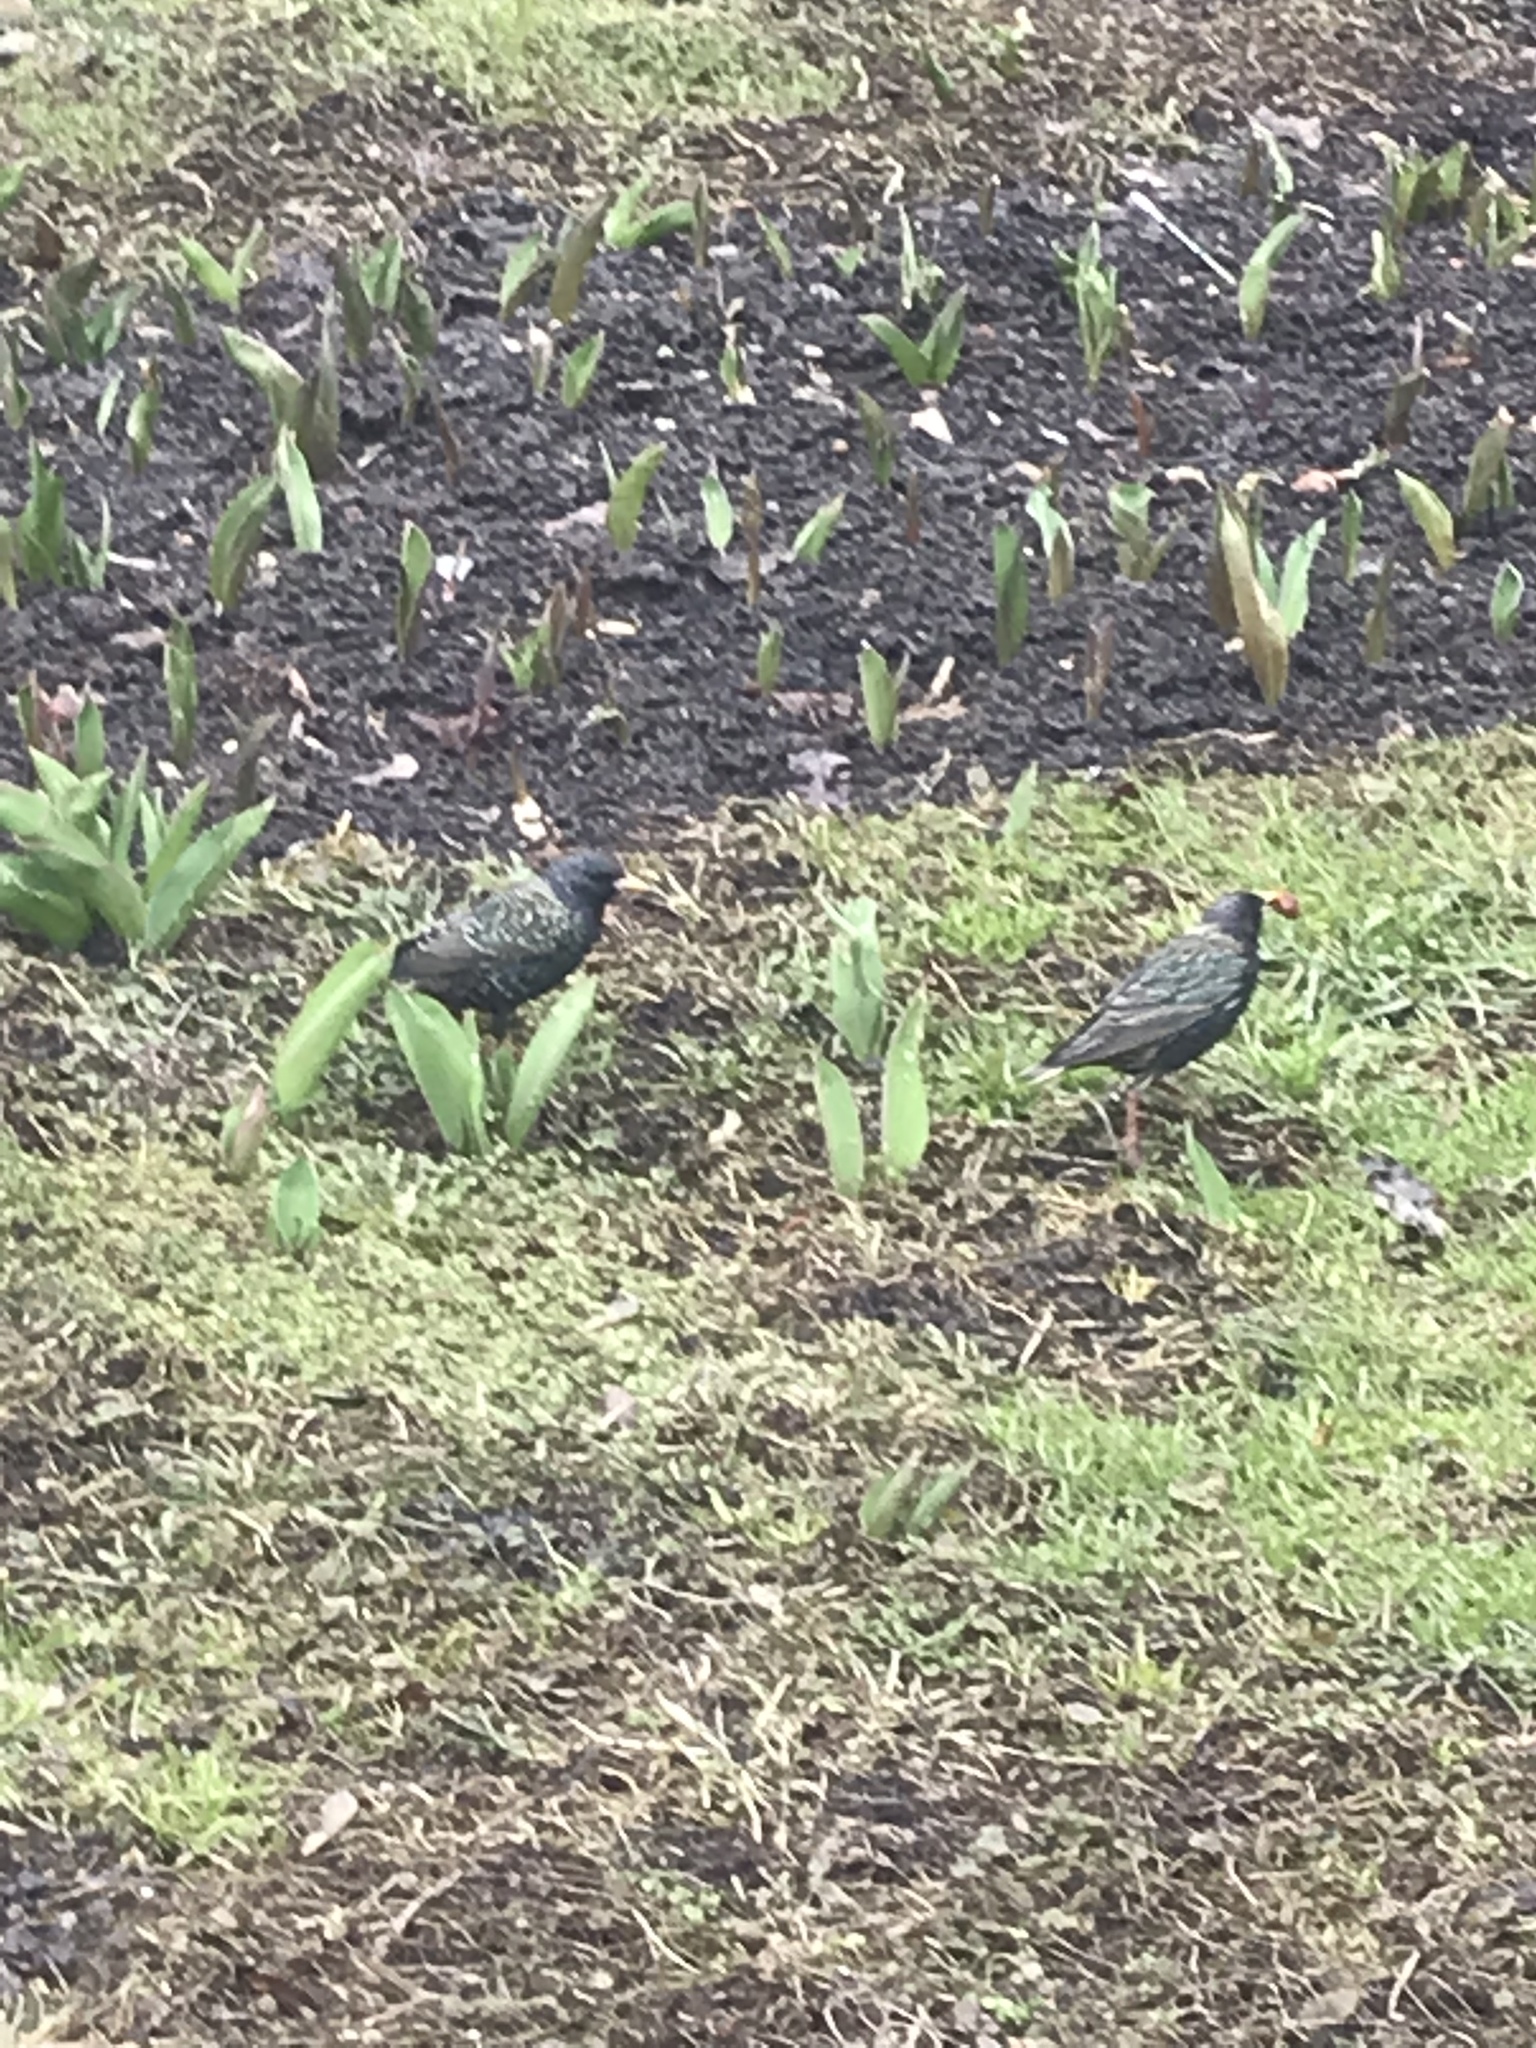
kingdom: Animalia
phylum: Chordata
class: Aves
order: Passeriformes
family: Sturnidae
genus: Sturnus
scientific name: Sturnus vulgaris
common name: Common starling
